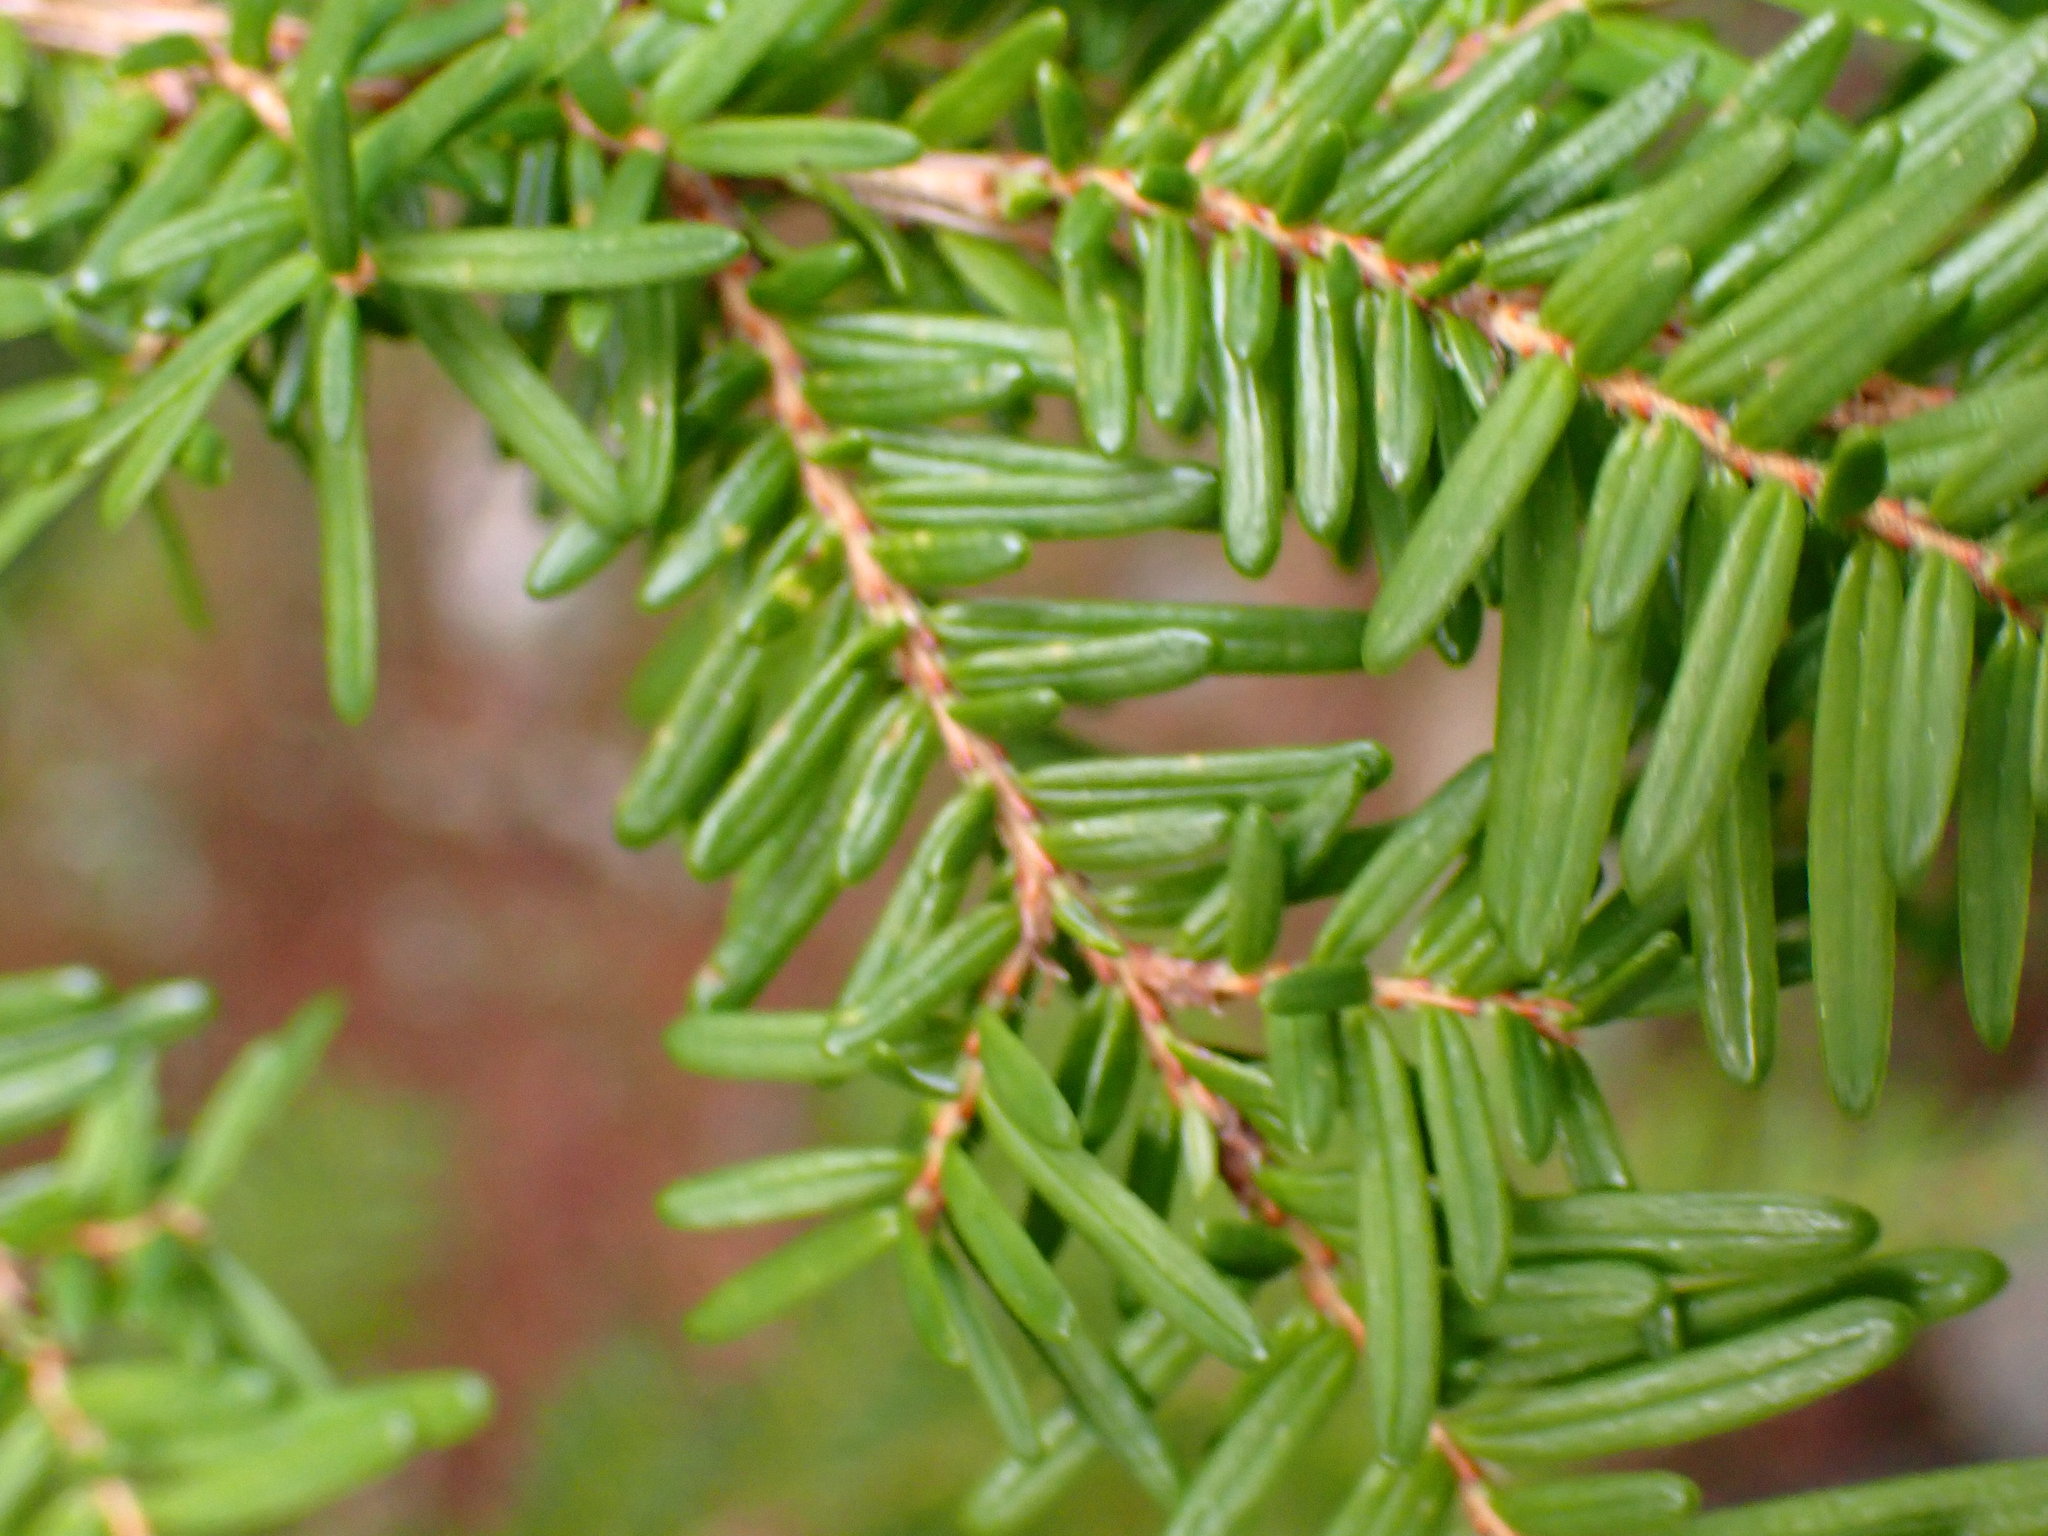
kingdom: Plantae
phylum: Tracheophyta
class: Pinopsida
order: Pinales
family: Pinaceae
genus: Tsuga
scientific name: Tsuga heterophylla
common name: Western hemlock
